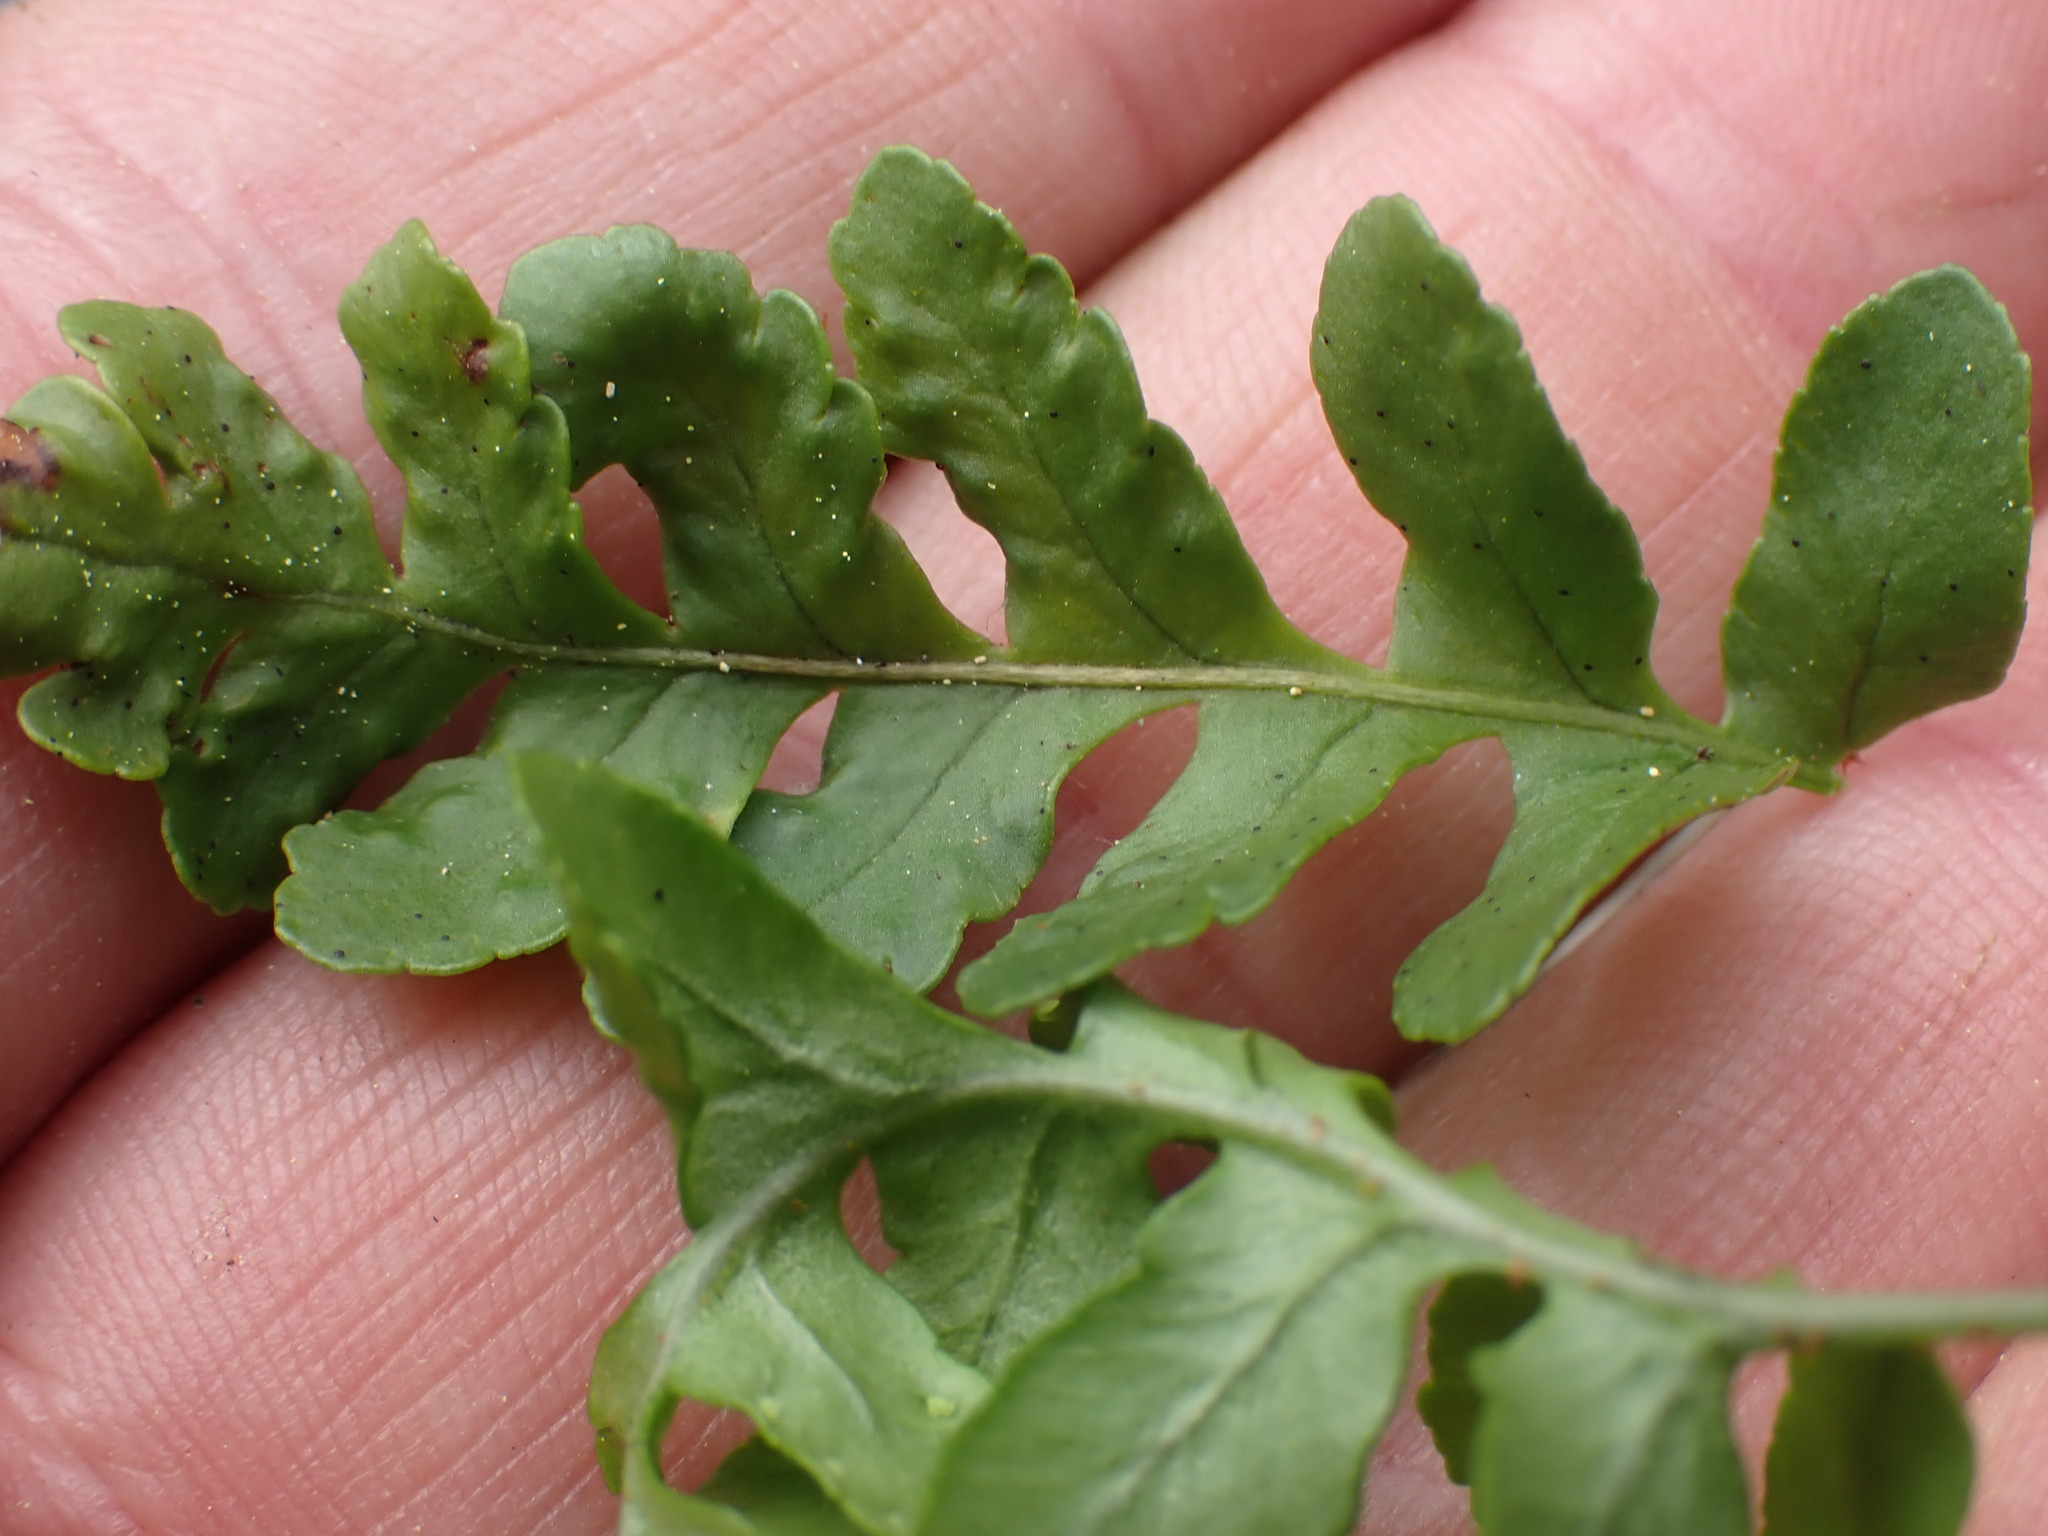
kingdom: Plantae
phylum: Tracheophyta
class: Polypodiopsida
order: Polypodiales
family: Polypodiaceae
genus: Polypodium
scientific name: Polypodium amorphum
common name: Pacific polypody
